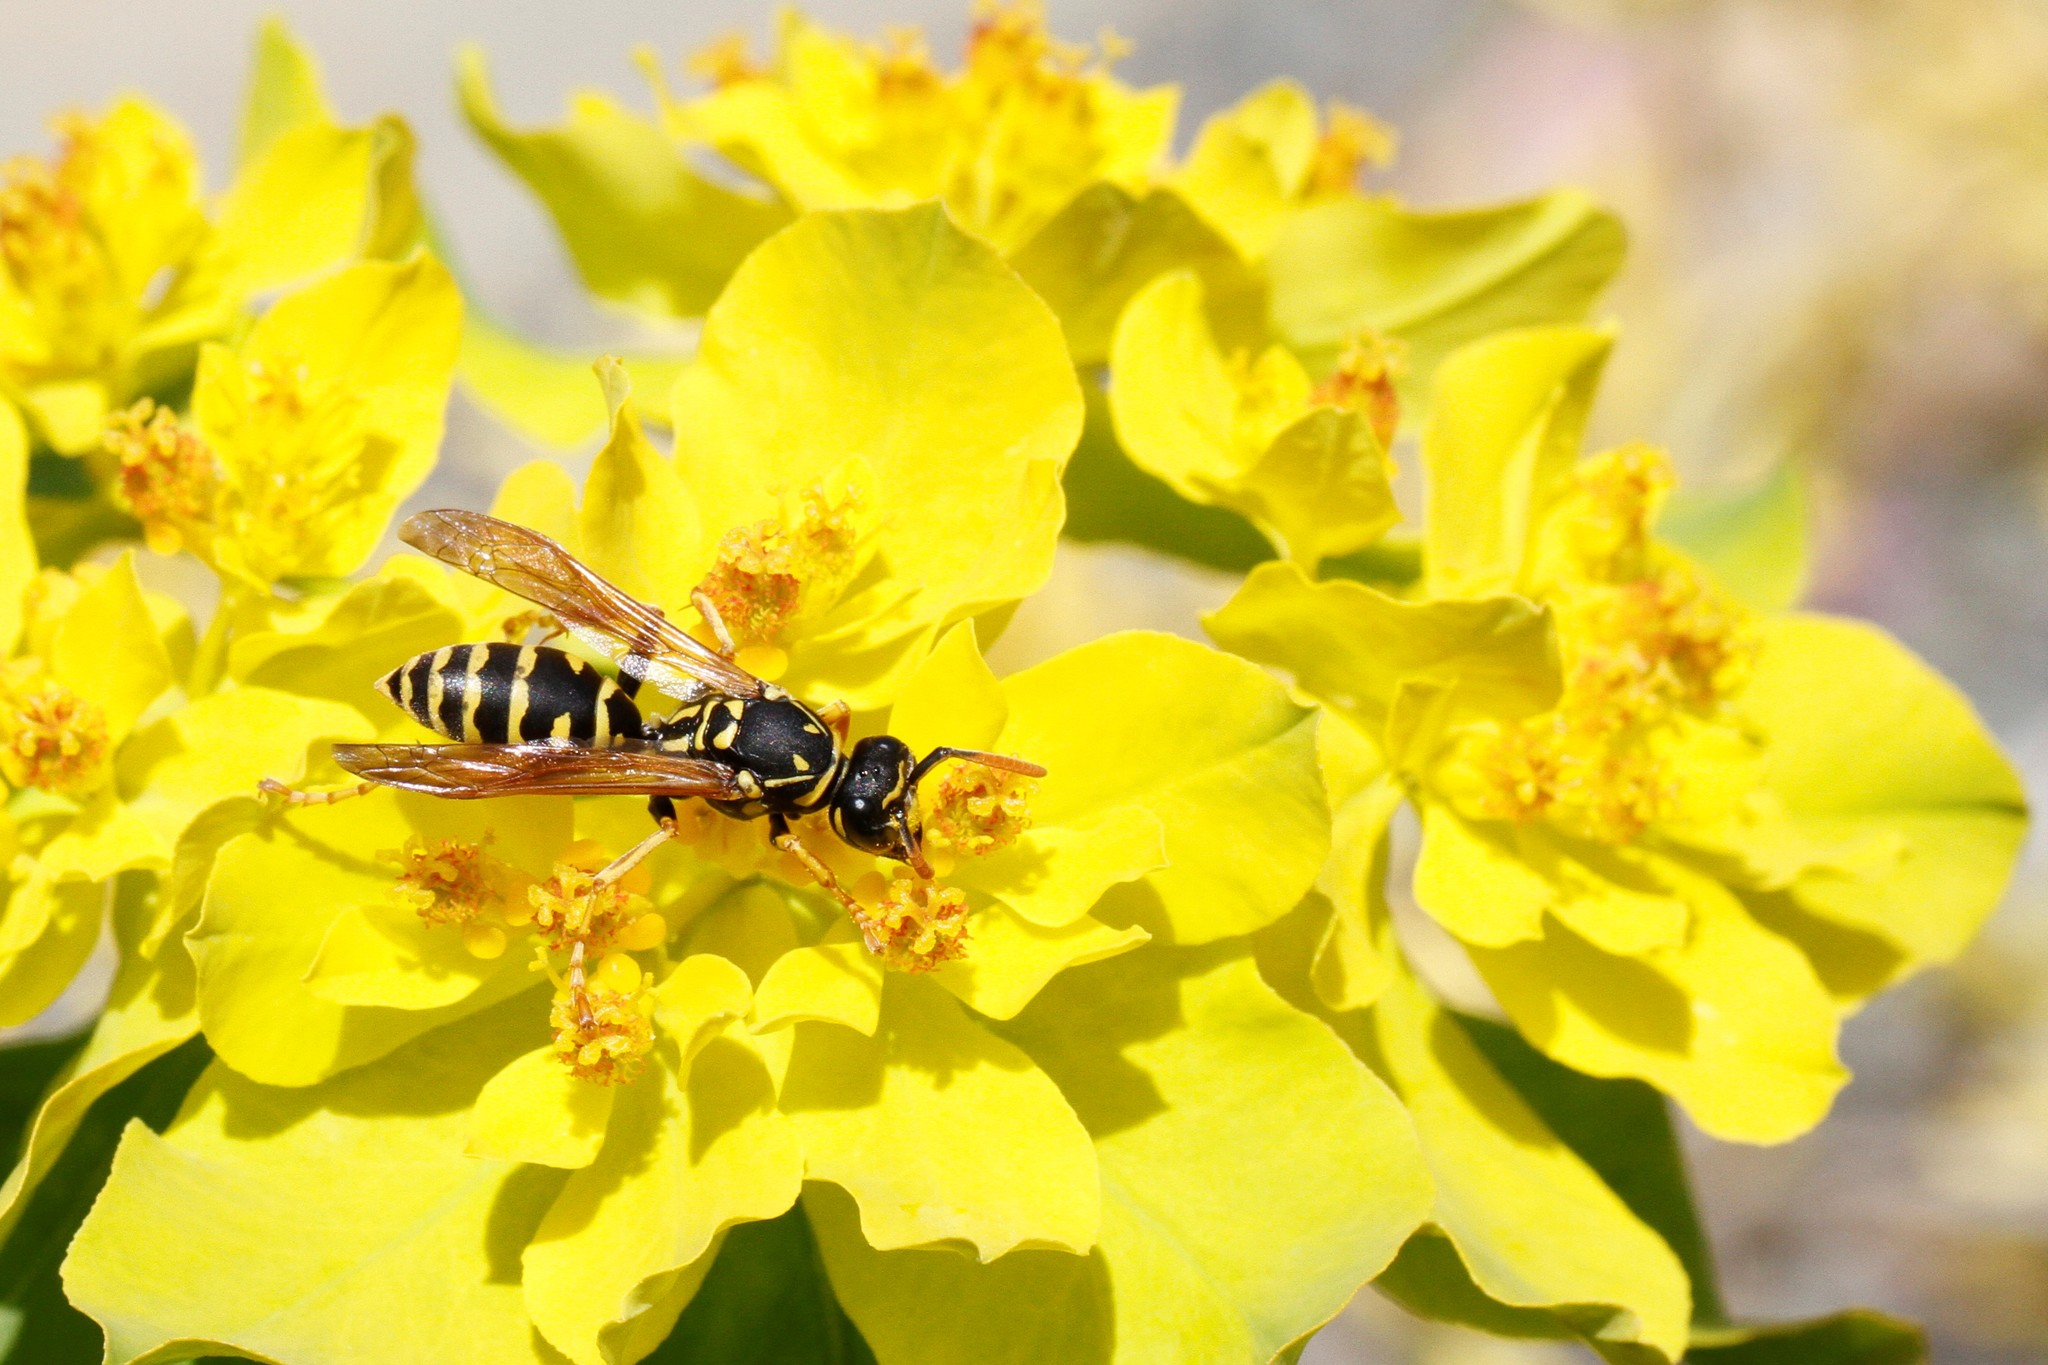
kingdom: Animalia
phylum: Arthropoda
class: Insecta
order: Hymenoptera
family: Eumenidae
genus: Polistes
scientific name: Polistes dominula
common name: Paper wasp
